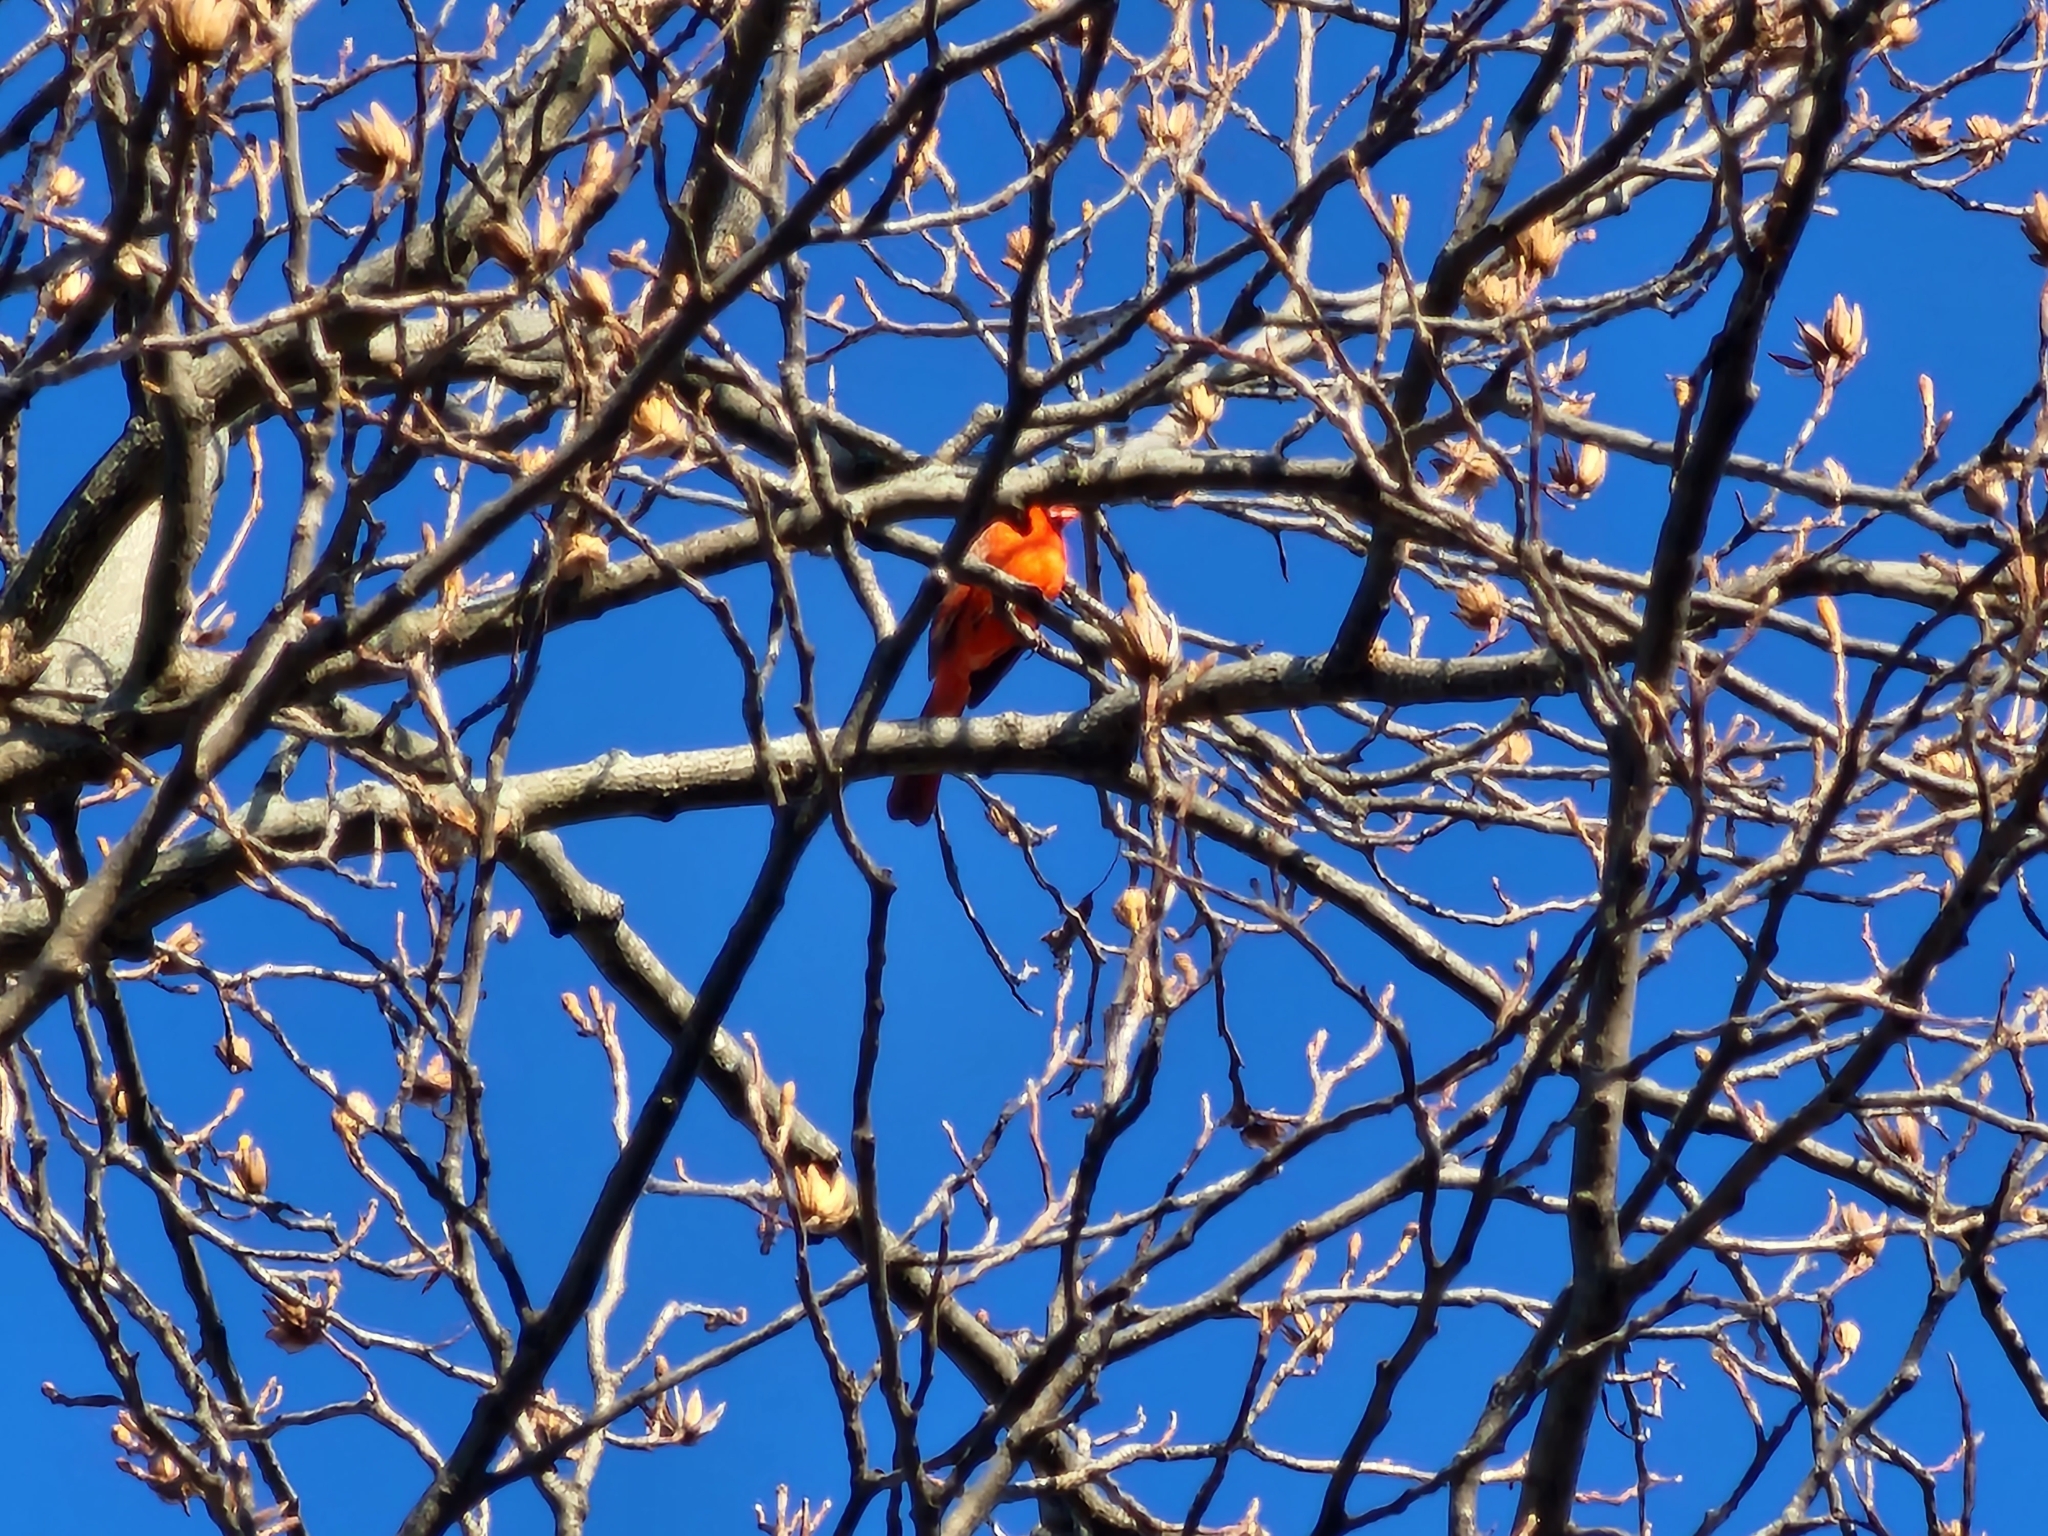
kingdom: Animalia
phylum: Chordata
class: Aves
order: Passeriformes
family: Cardinalidae
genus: Cardinalis
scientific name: Cardinalis cardinalis
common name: Northern cardinal
